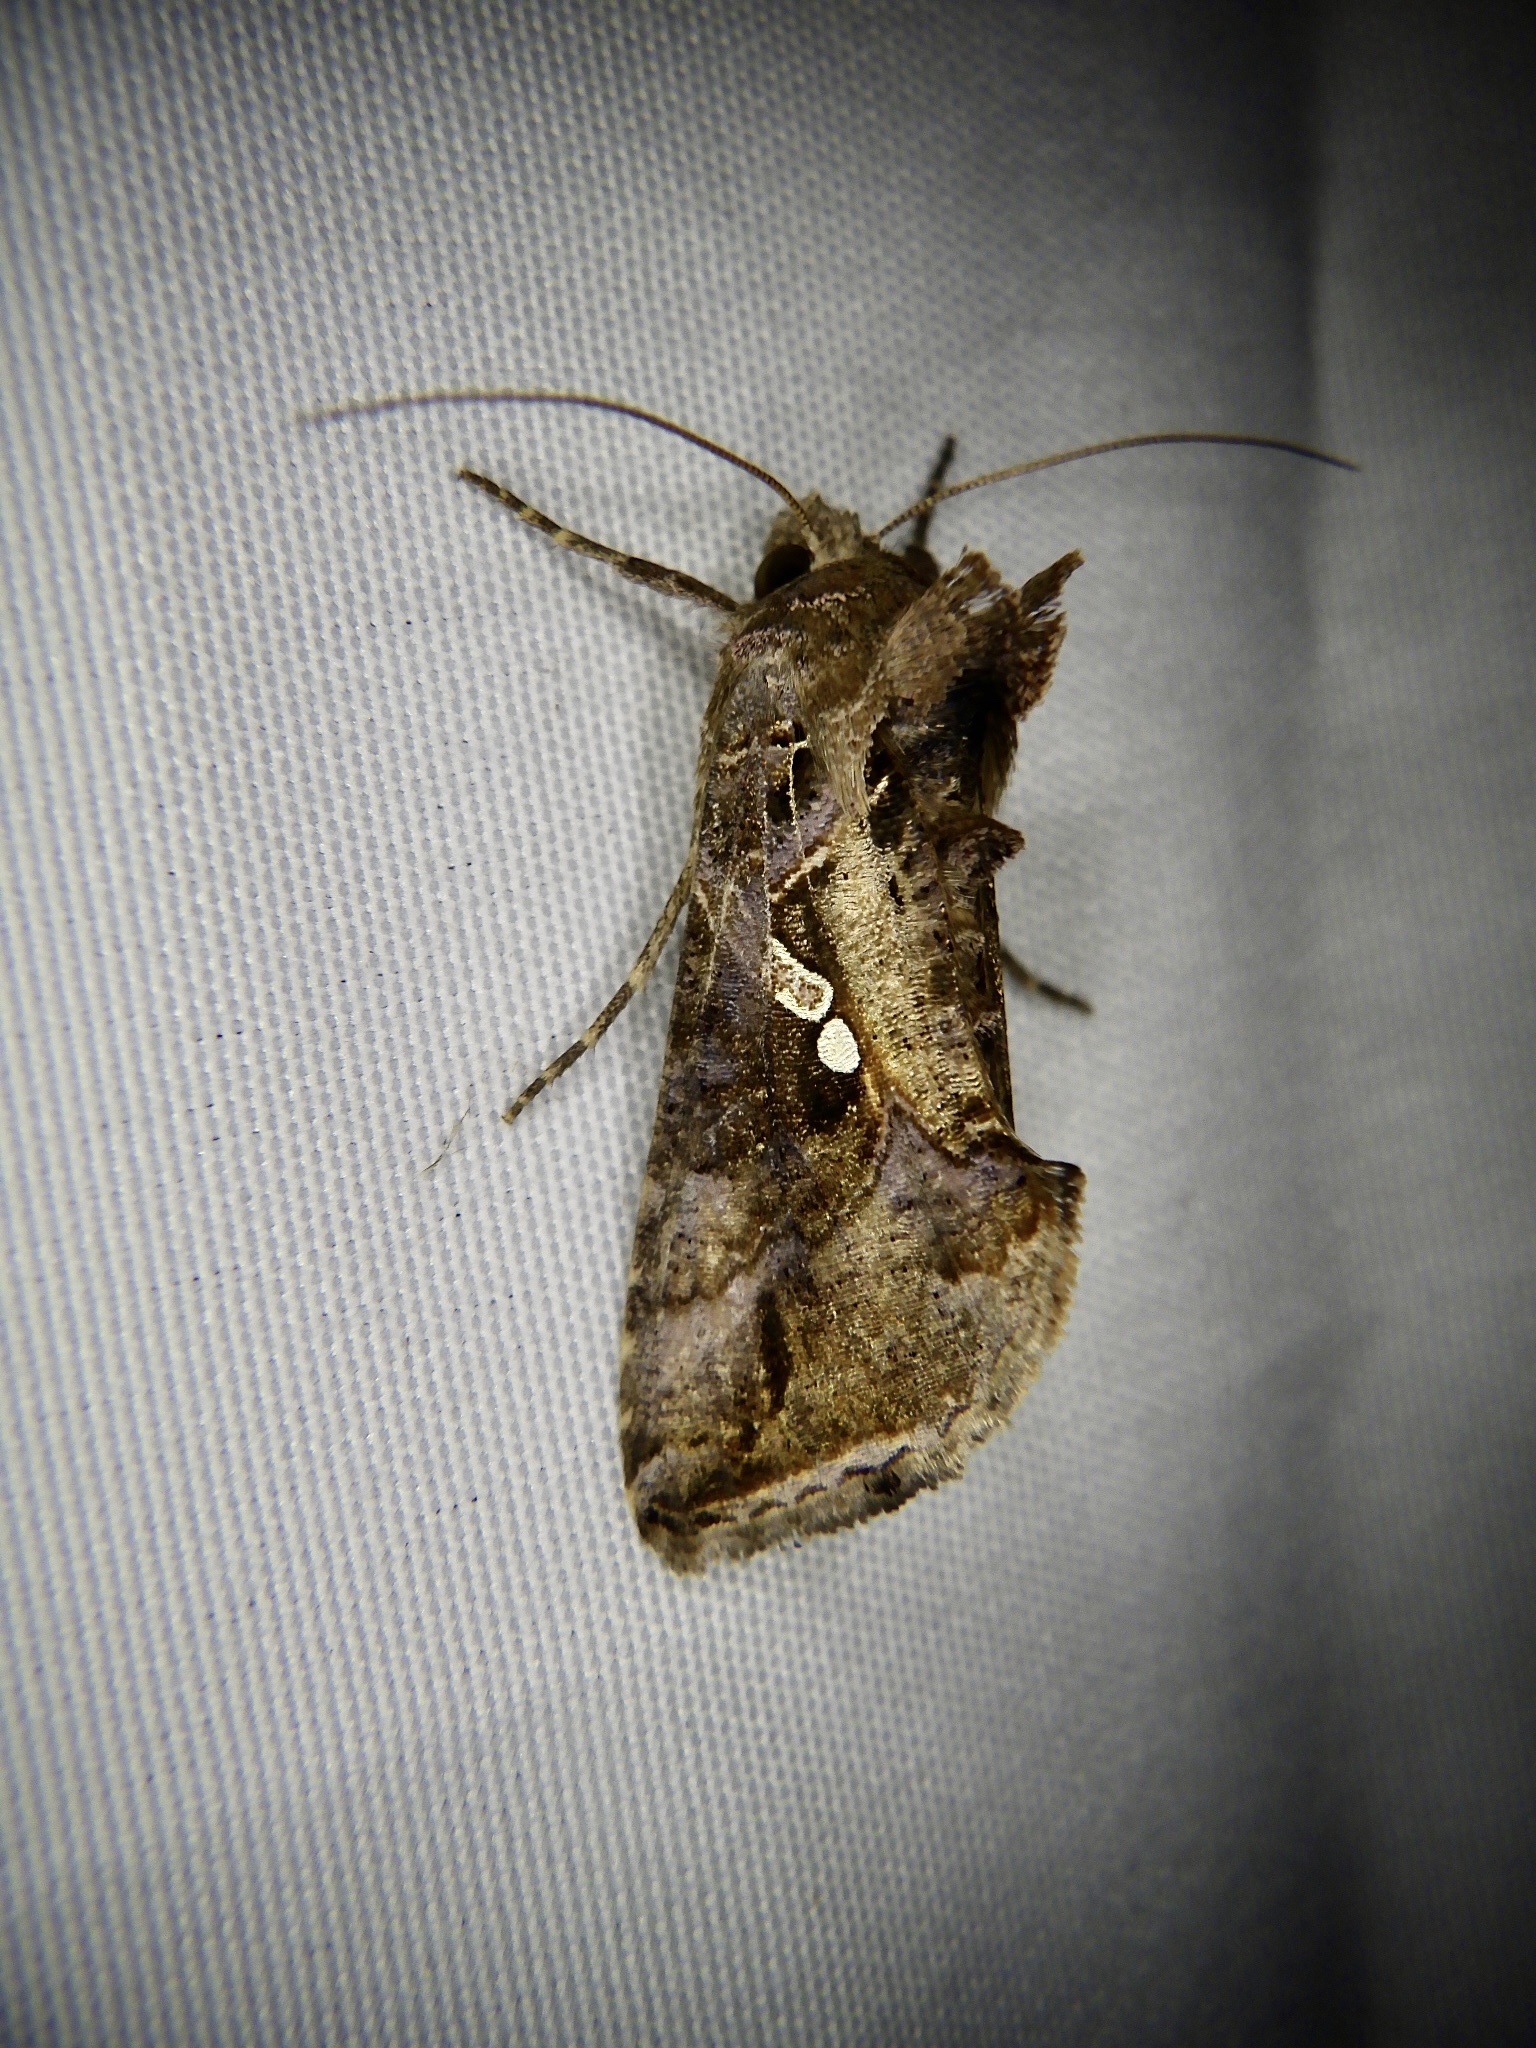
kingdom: Animalia
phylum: Arthropoda
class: Insecta
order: Lepidoptera
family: Noctuidae
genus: Ctenoplusia
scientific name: Ctenoplusia agnata
